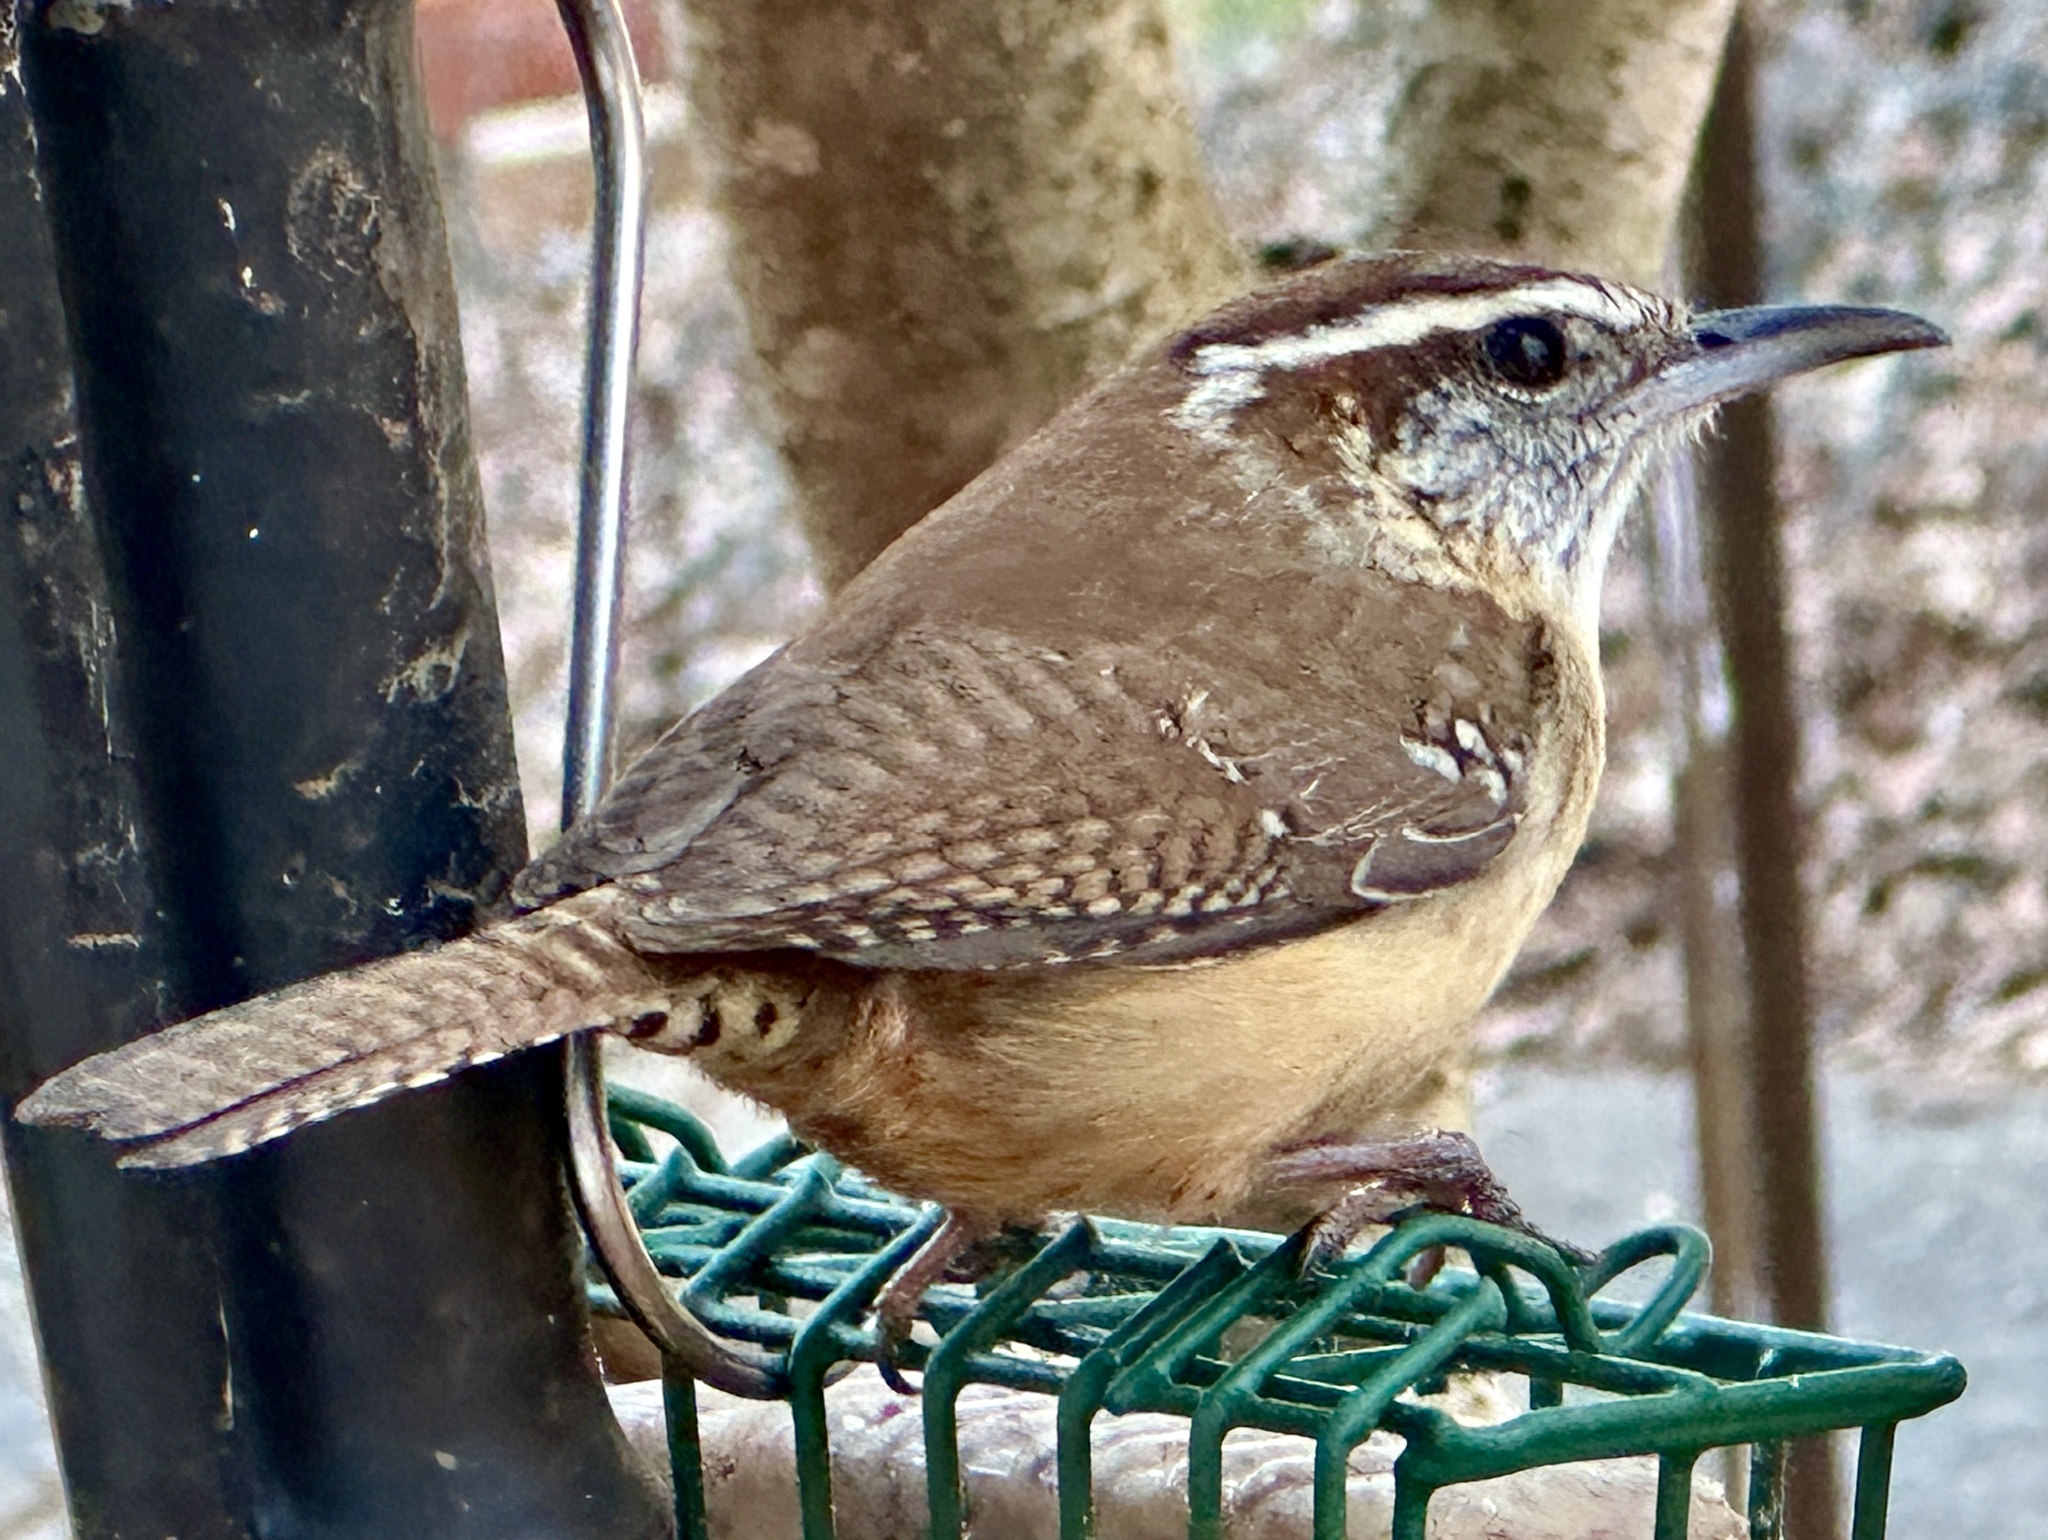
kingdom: Animalia
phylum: Chordata
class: Aves
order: Passeriformes
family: Troglodytidae
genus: Thryothorus
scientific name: Thryothorus ludovicianus
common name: Carolina wren
